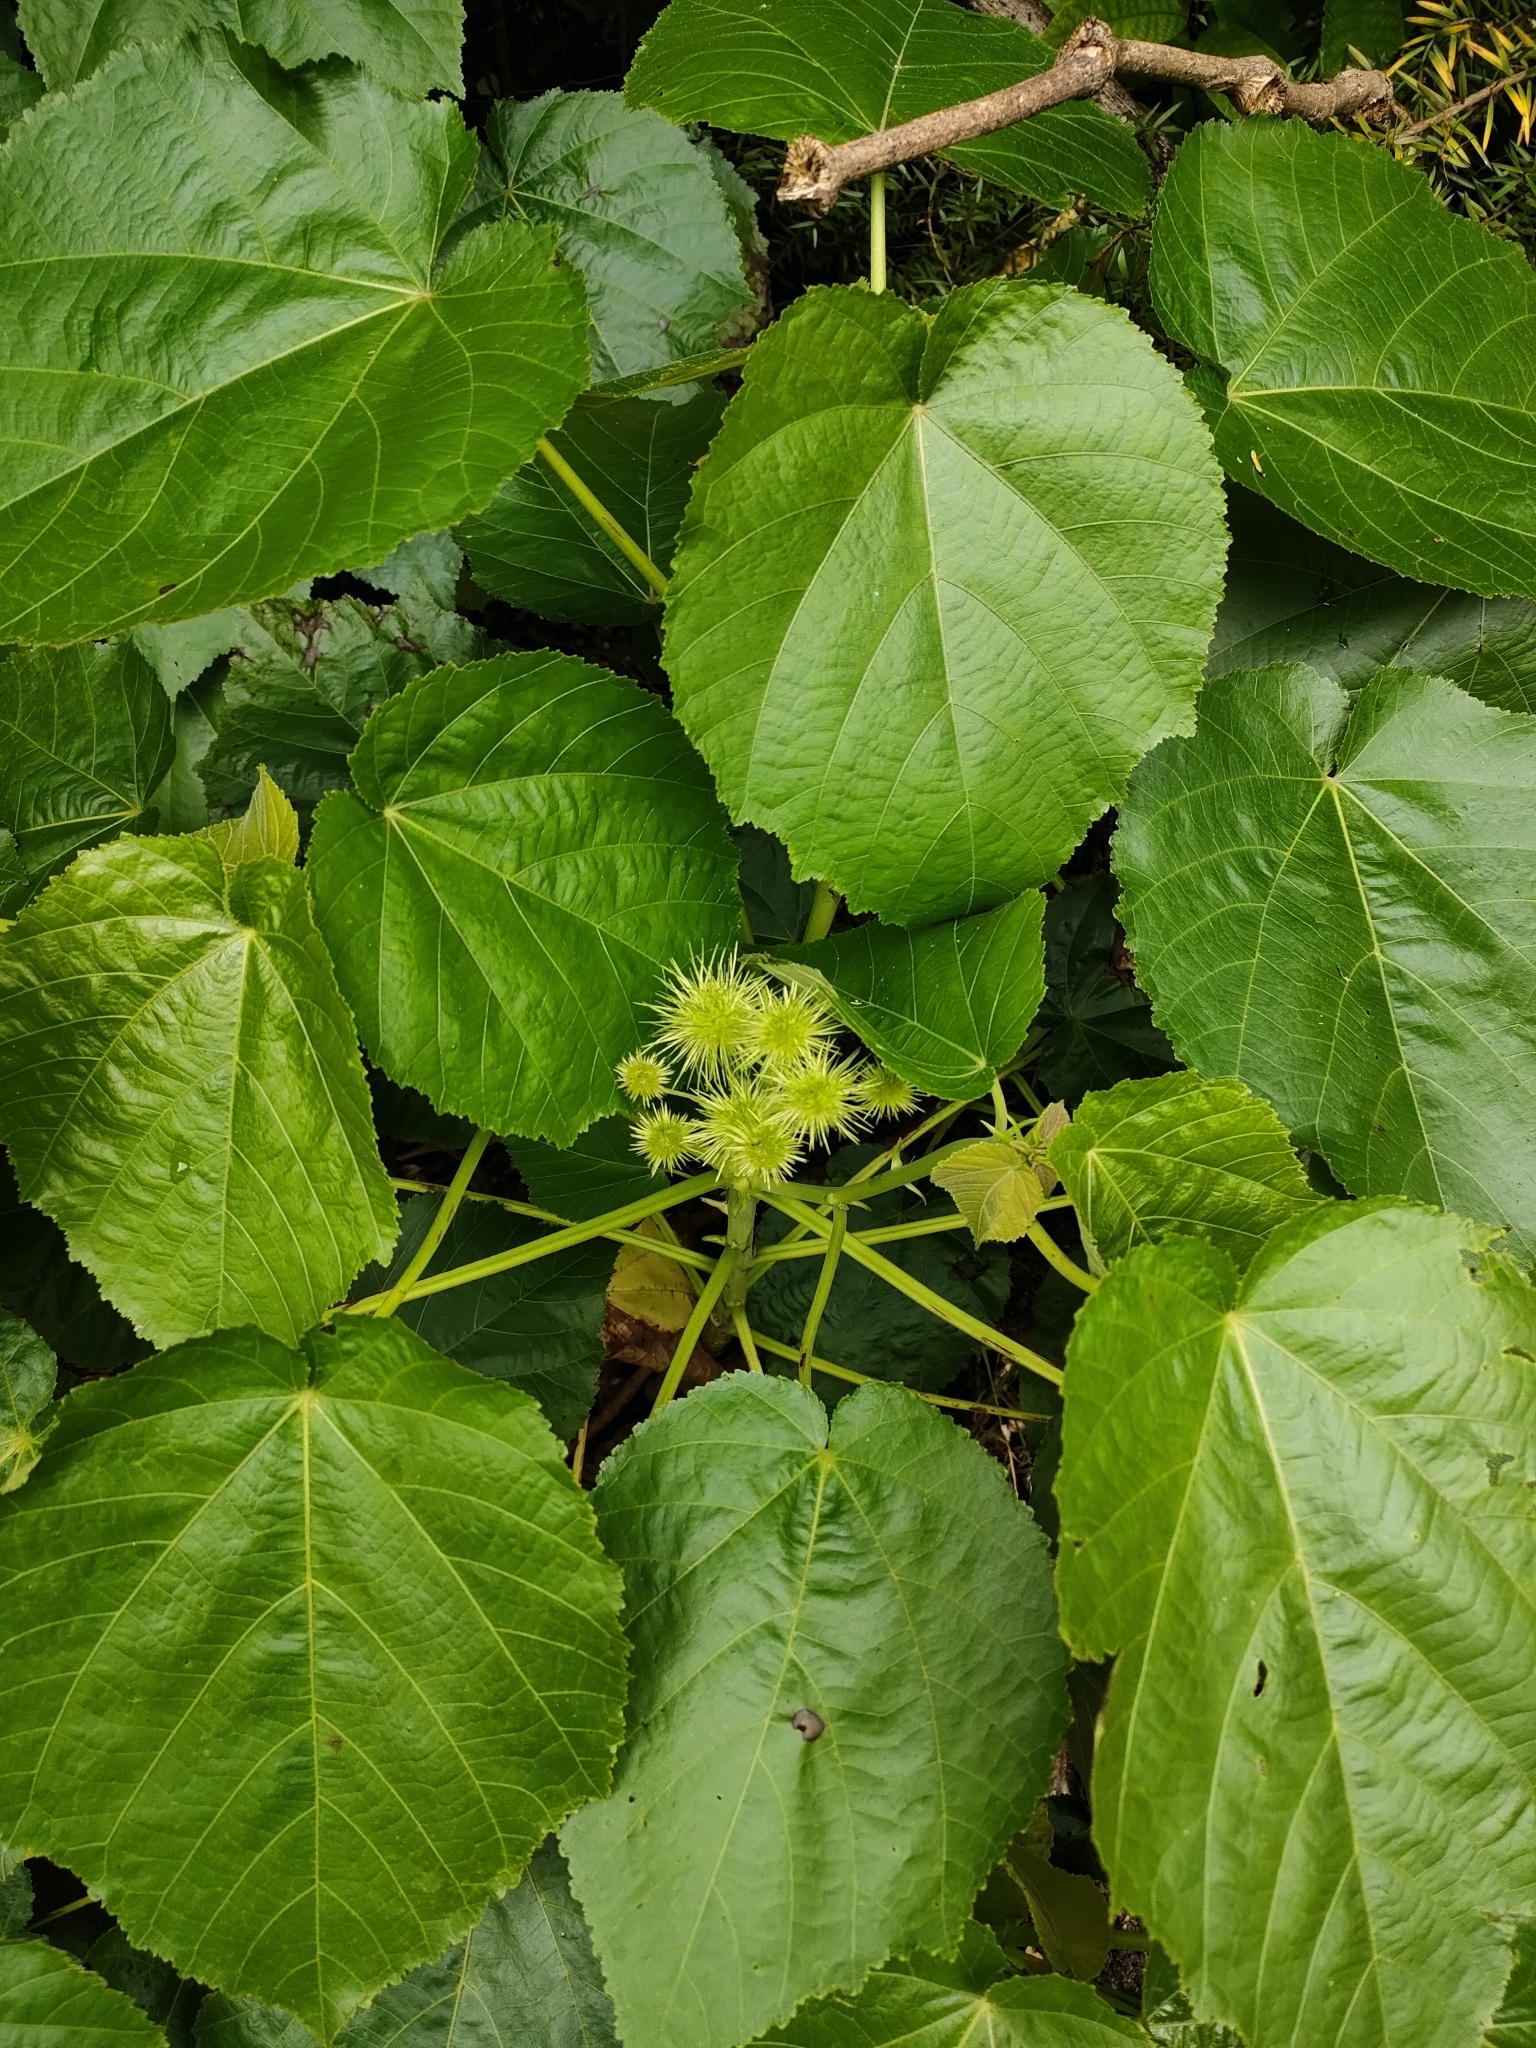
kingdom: Plantae
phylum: Tracheophyta
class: Magnoliopsida
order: Malvales
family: Malvaceae
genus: Entelea
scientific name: Entelea arborescens
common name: New zealand-mulberry
